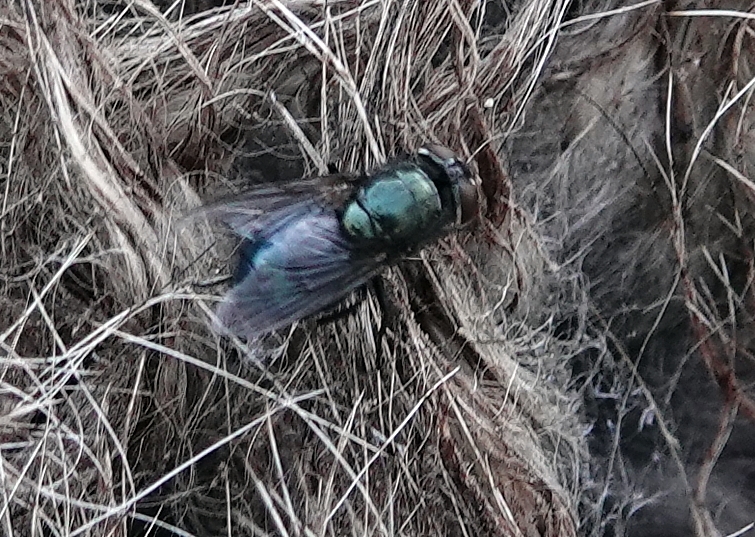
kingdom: Animalia
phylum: Arthropoda
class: Insecta
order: Diptera
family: Calliphoridae
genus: Phormia
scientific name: Phormia regina
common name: Black blow fly
